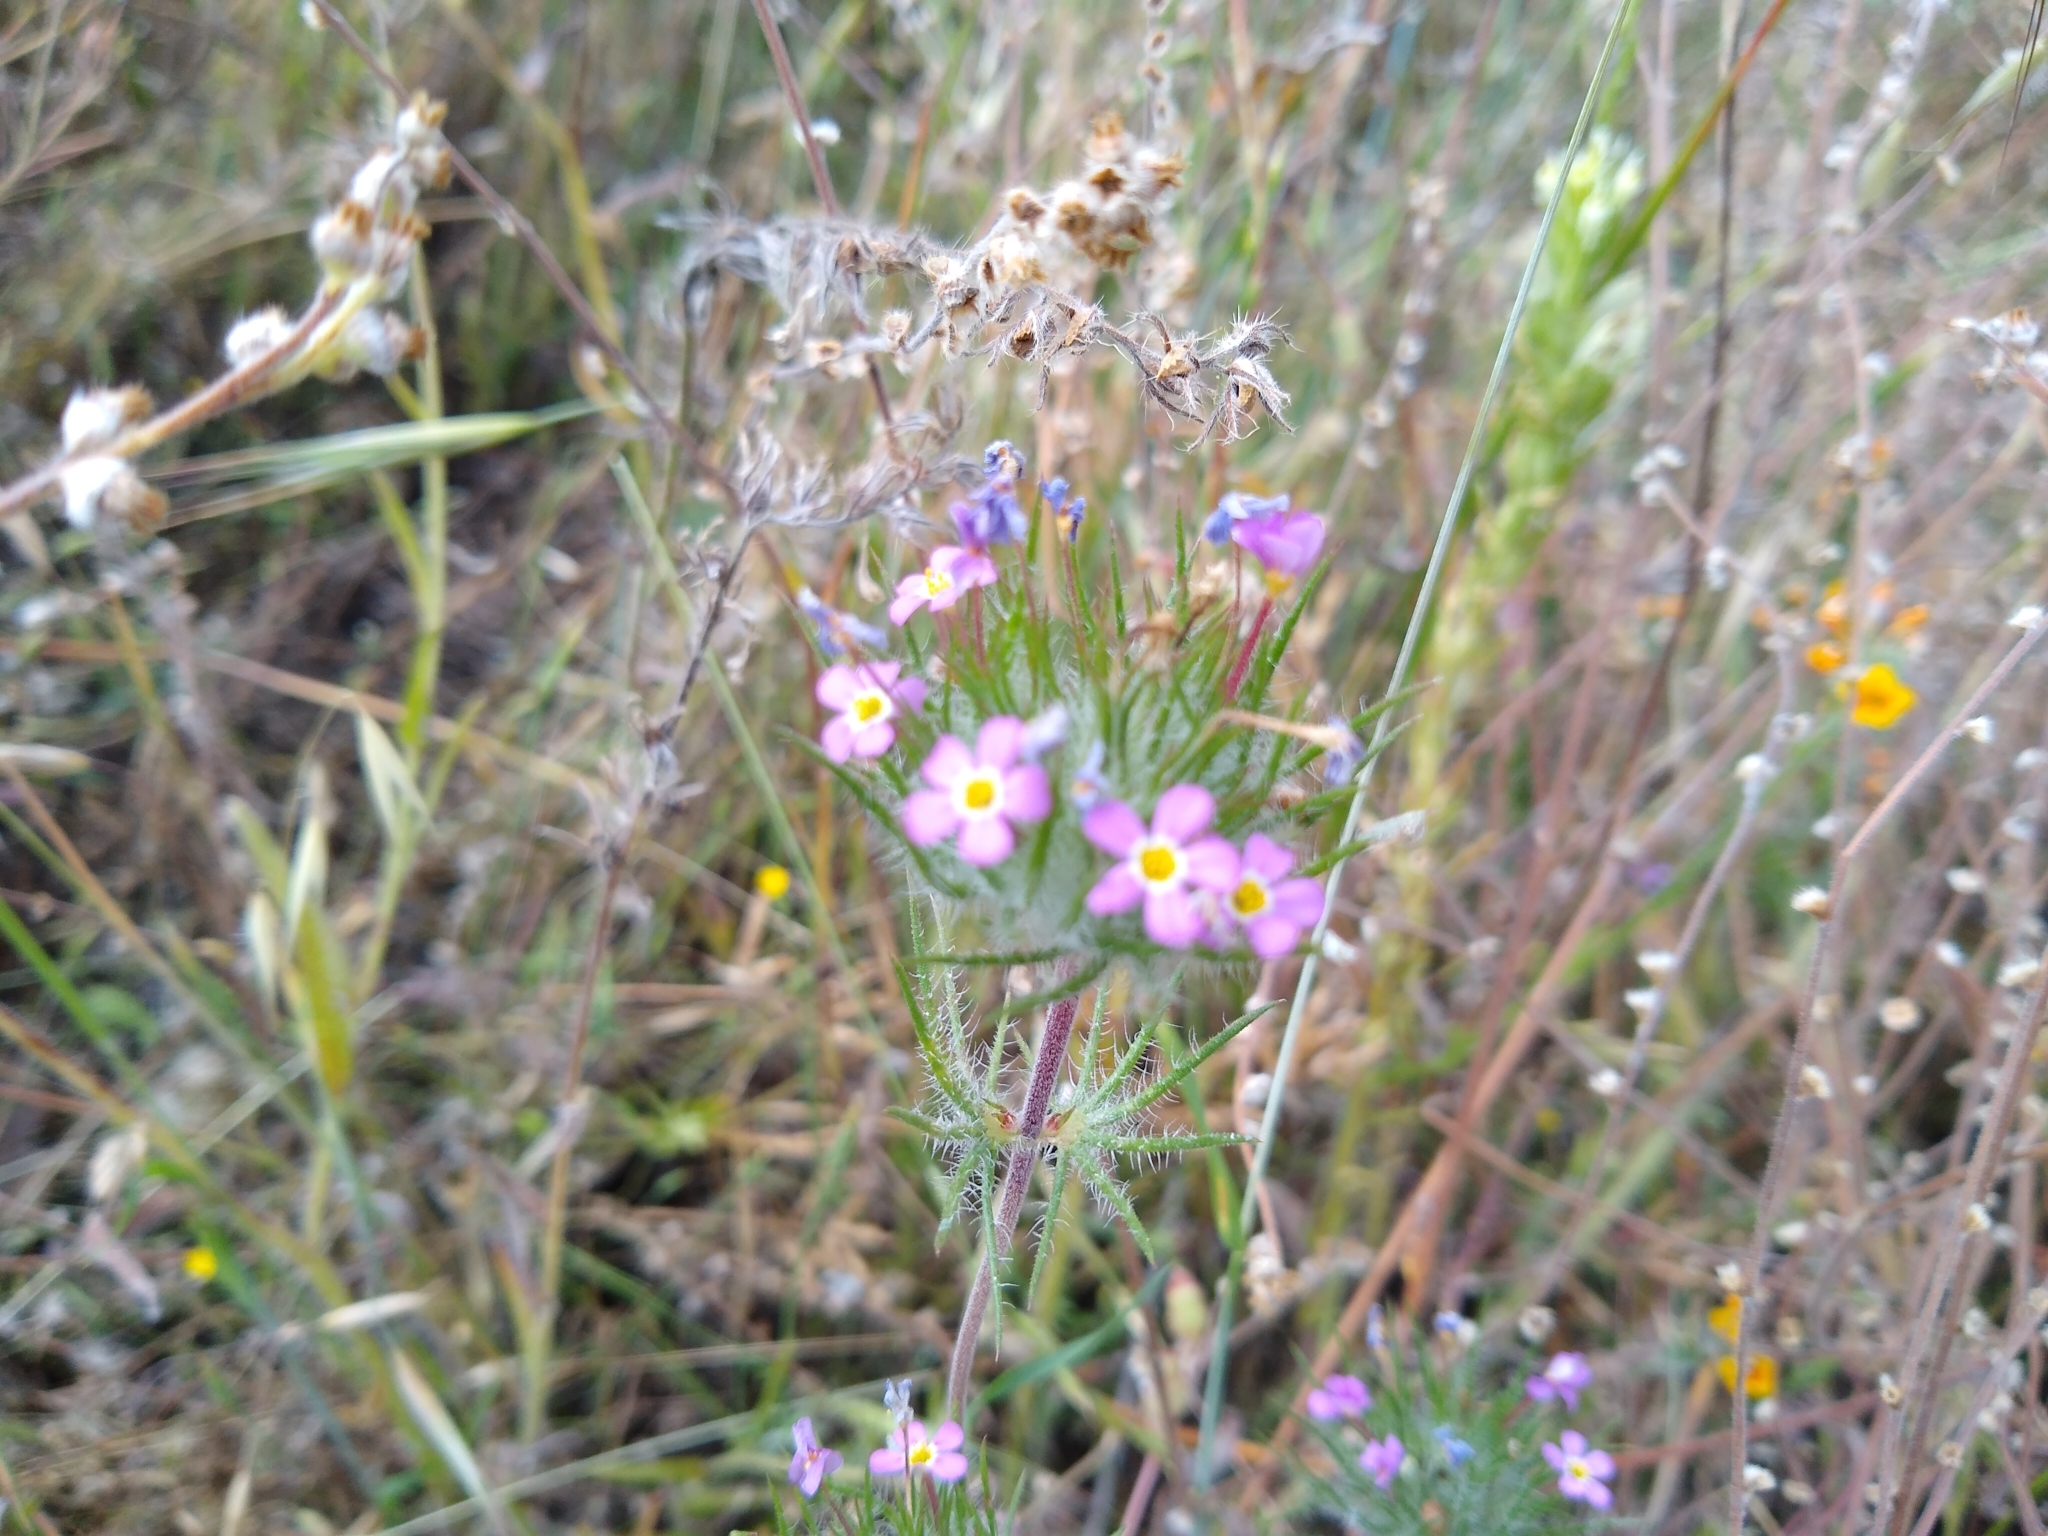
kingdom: Plantae
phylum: Tracheophyta
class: Magnoliopsida
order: Ericales
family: Polemoniaceae
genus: Leptosiphon
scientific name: Leptosiphon ciliatus
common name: Whiskerbrush
